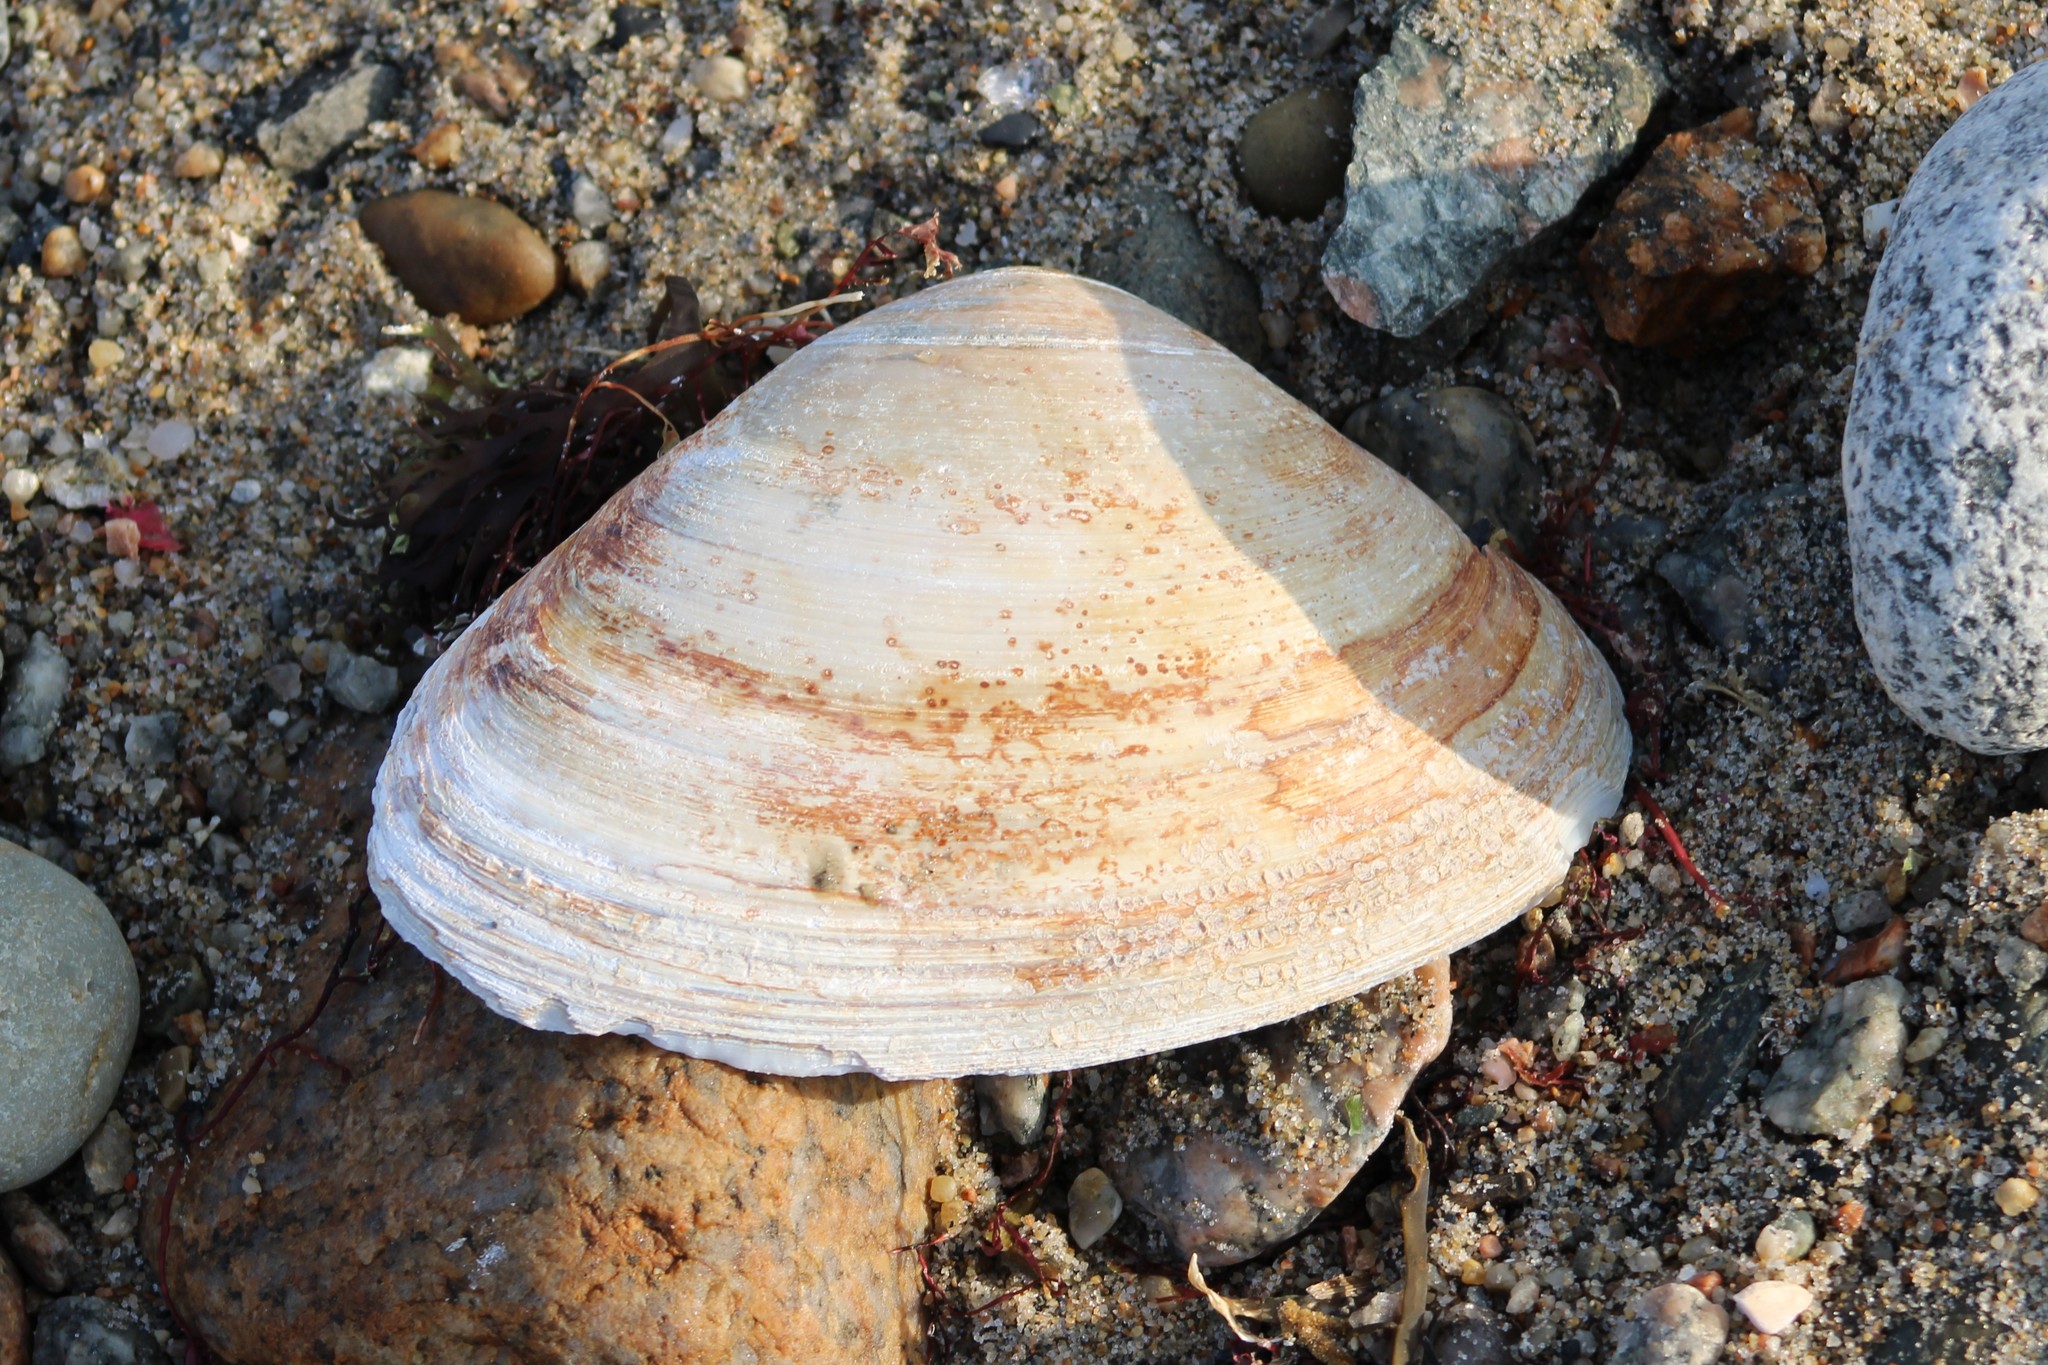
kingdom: Animalia
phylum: Mollusca
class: Bivalvia
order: Venerida
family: Mactridae
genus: Spisula
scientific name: Spisula solidissima
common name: Atlantic surf clam
